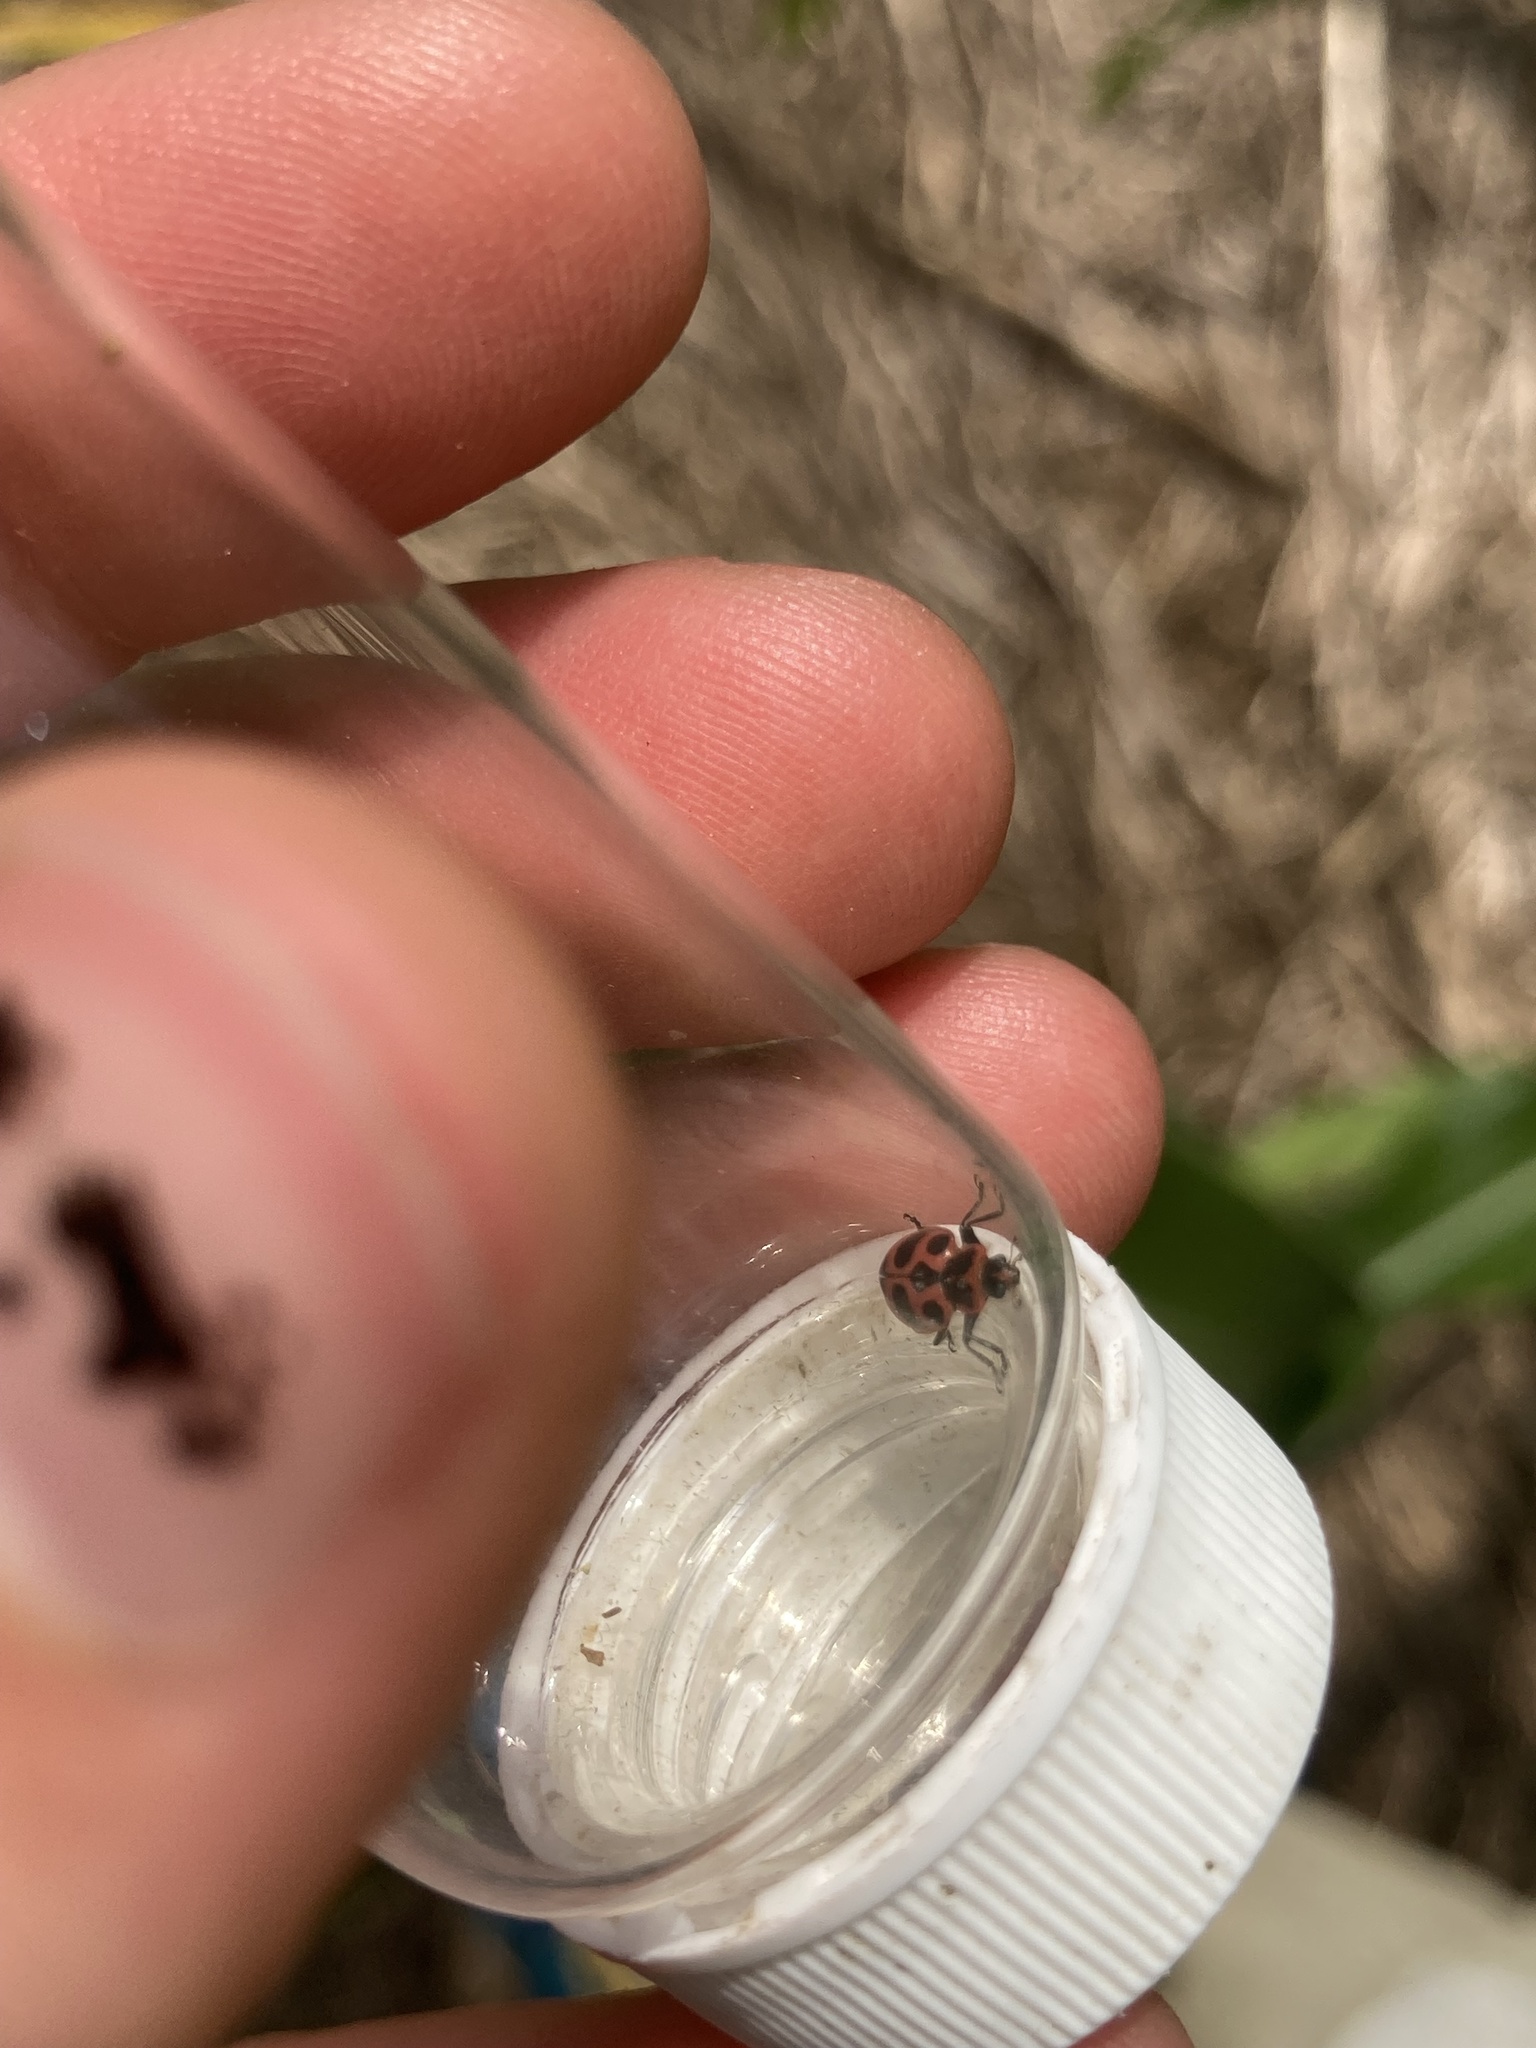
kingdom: Animalia
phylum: Arthropoda
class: Insecta
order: Coleoptera
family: Coccinellidae
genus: Coleomegilla
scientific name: Coleomegilla maculata
